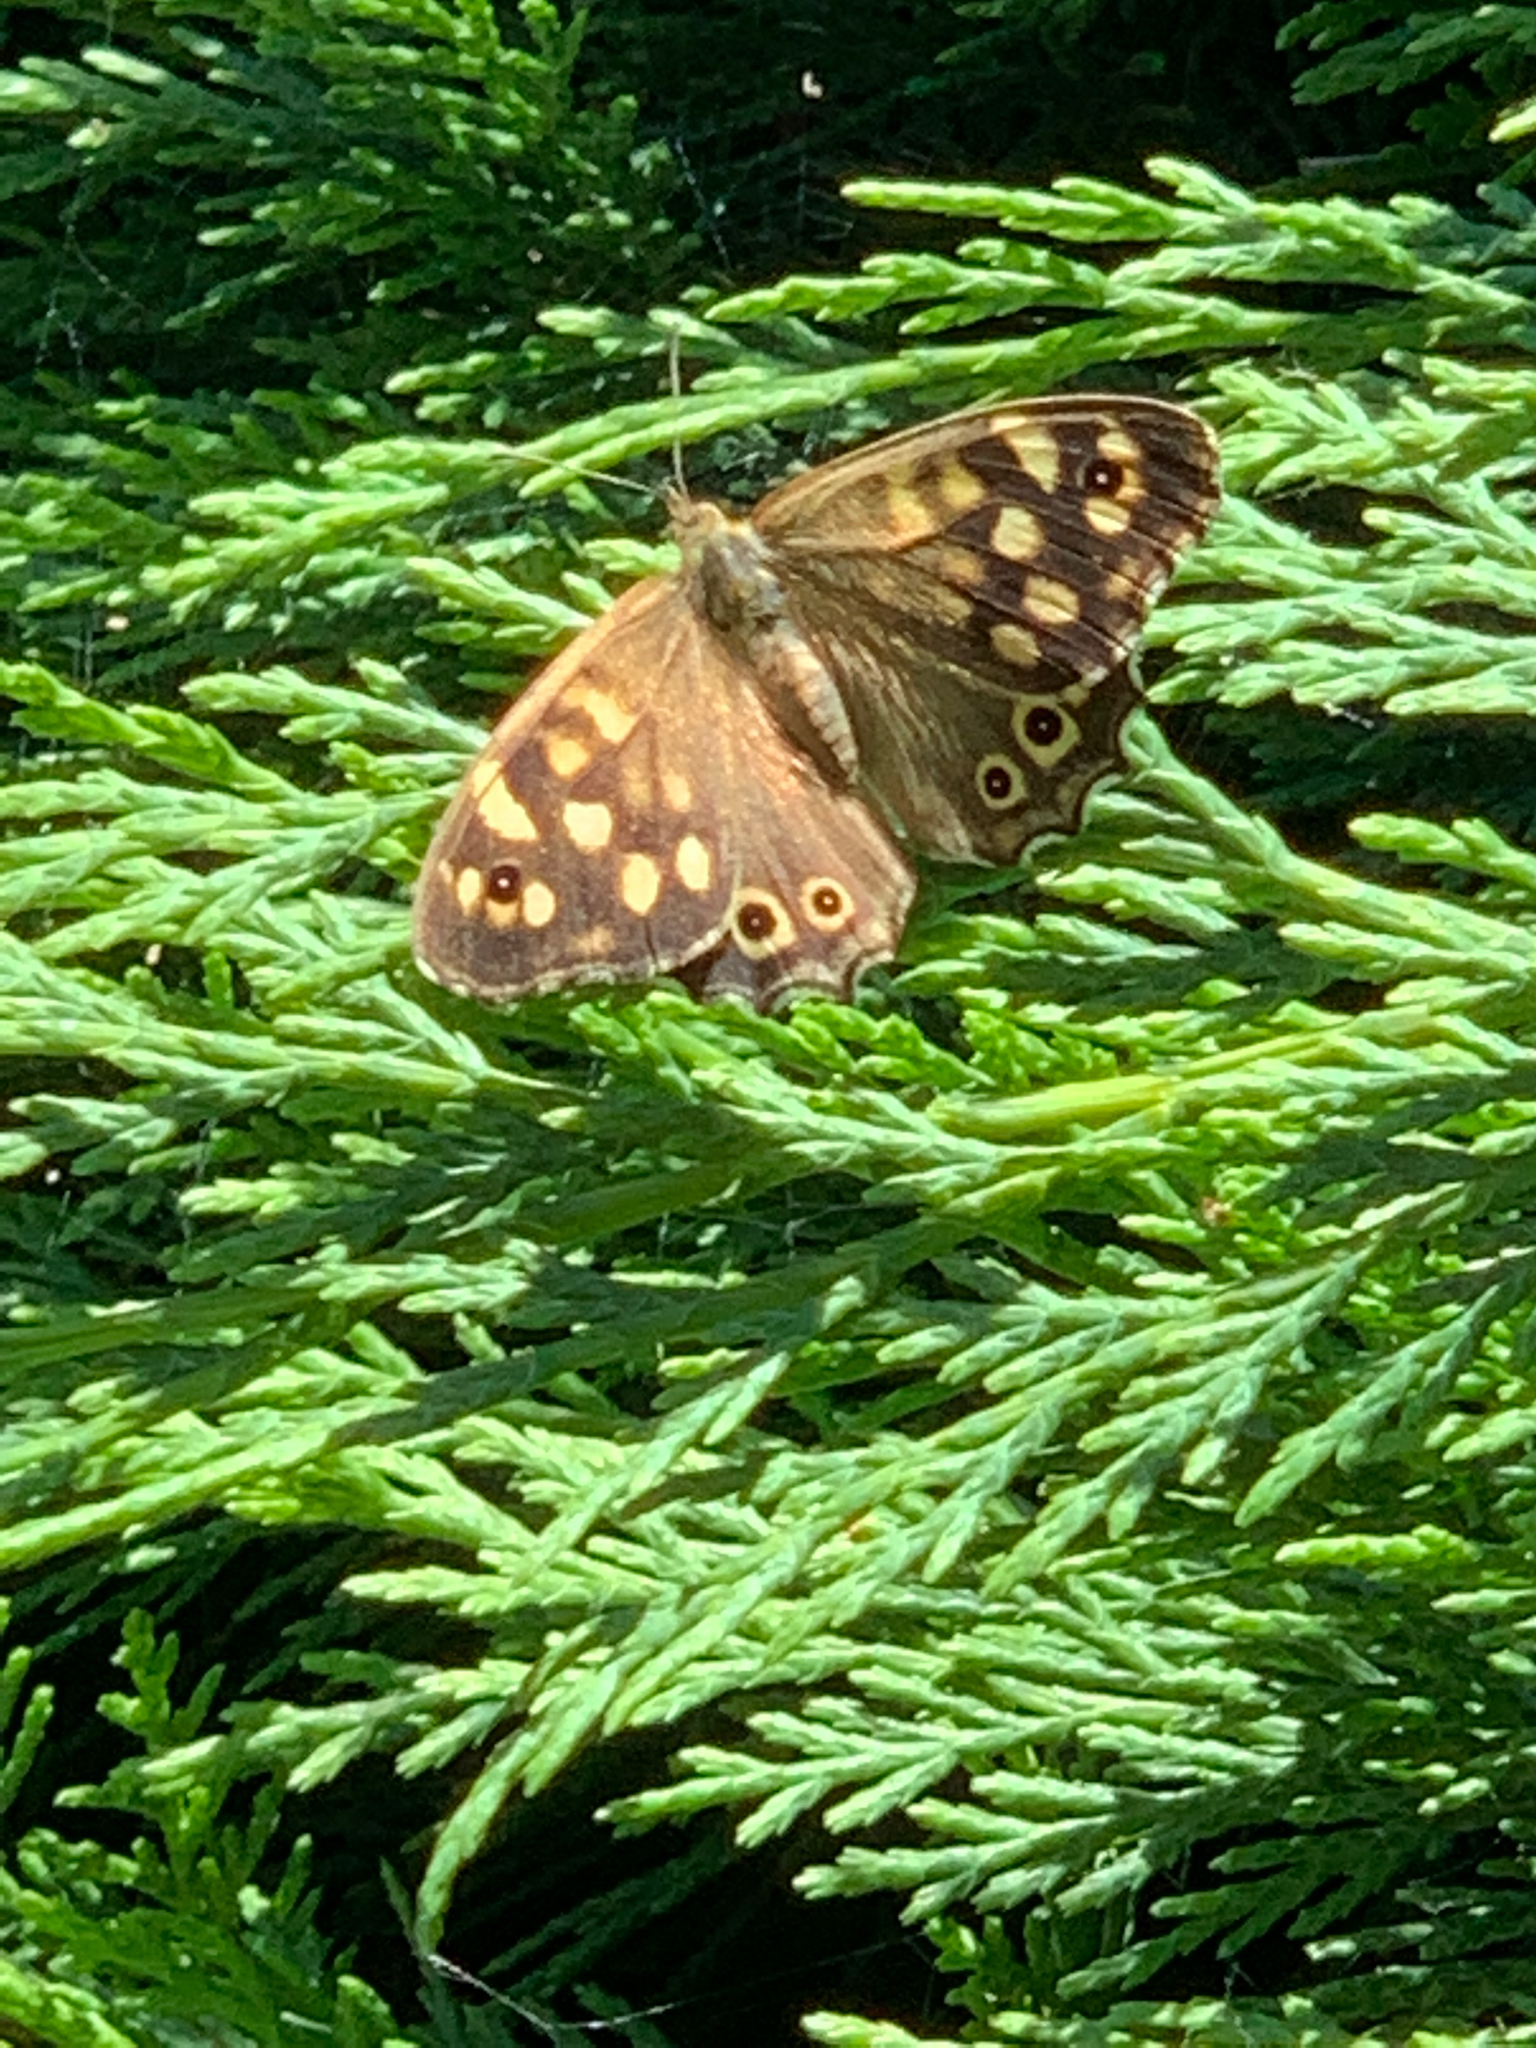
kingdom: Animalia
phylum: Arthropoda
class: Insecta
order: Lepidoptera
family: Nymphalidae
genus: Pararge
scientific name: Pararge aegeria
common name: Speckled wood
